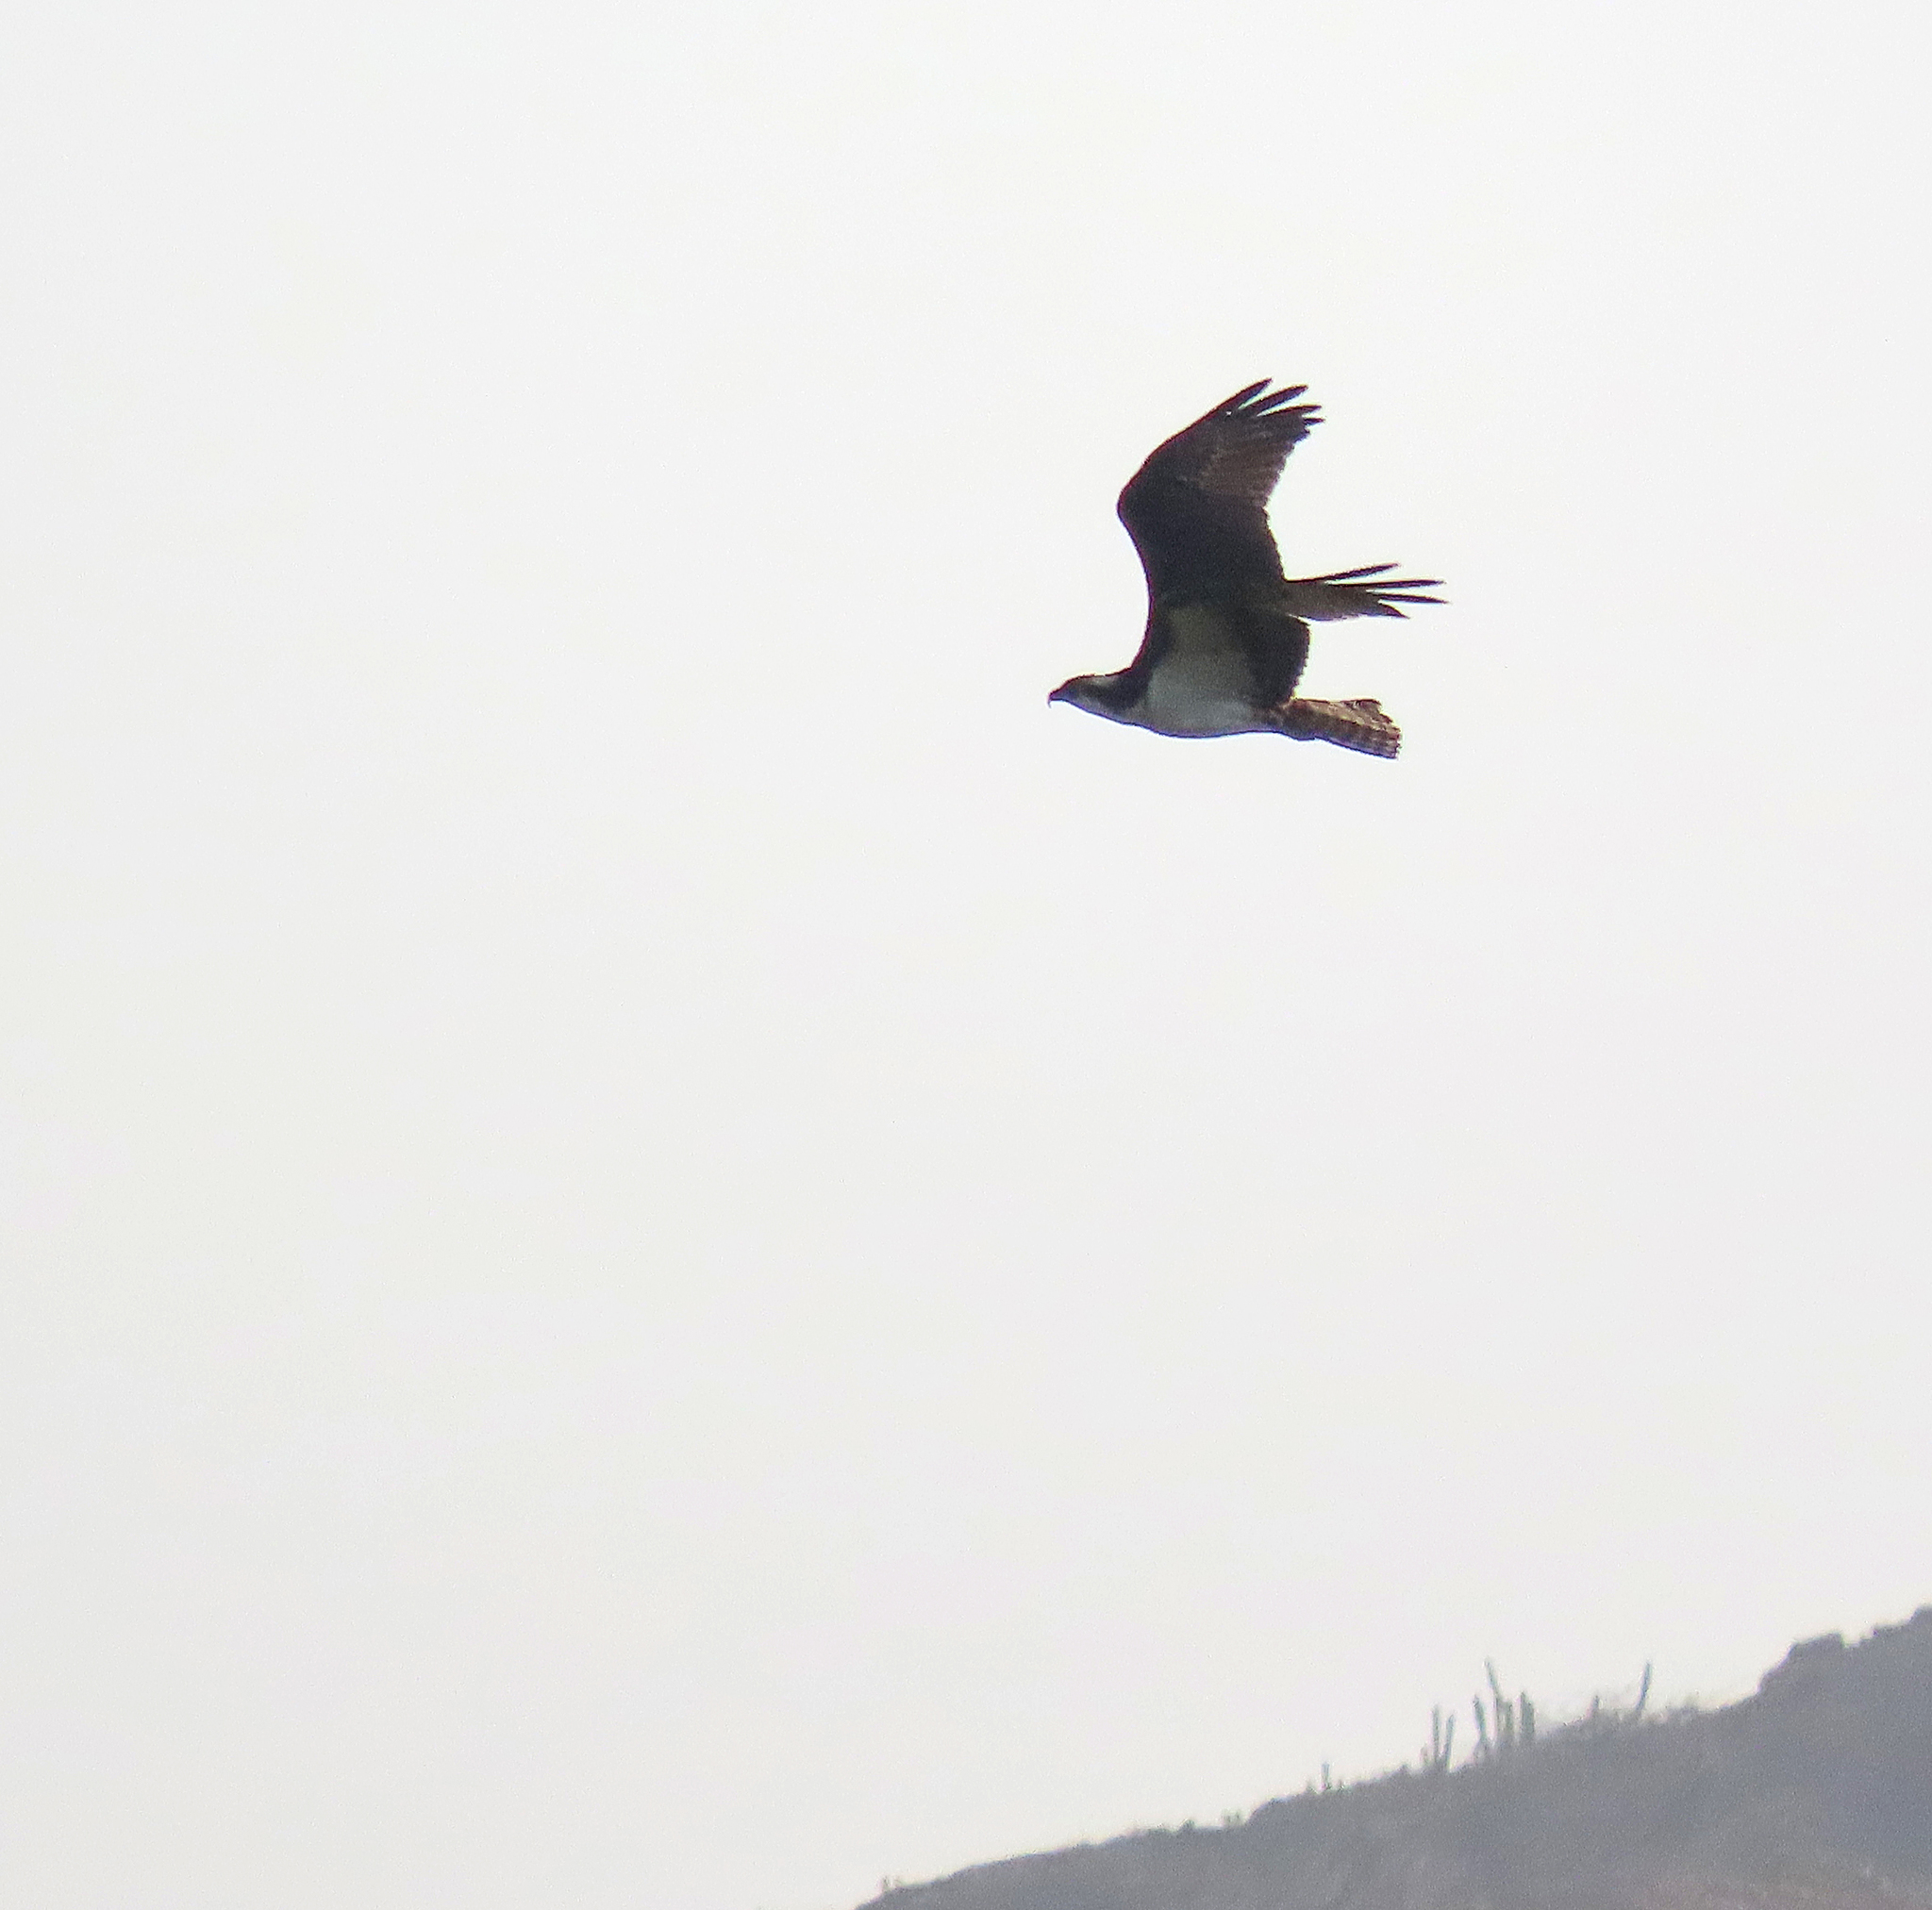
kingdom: Animalia
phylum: Chordata
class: Aves
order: Accipitriformes
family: Pandionidae
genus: Pandion
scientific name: Pandion haliaetus
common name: Osprey
